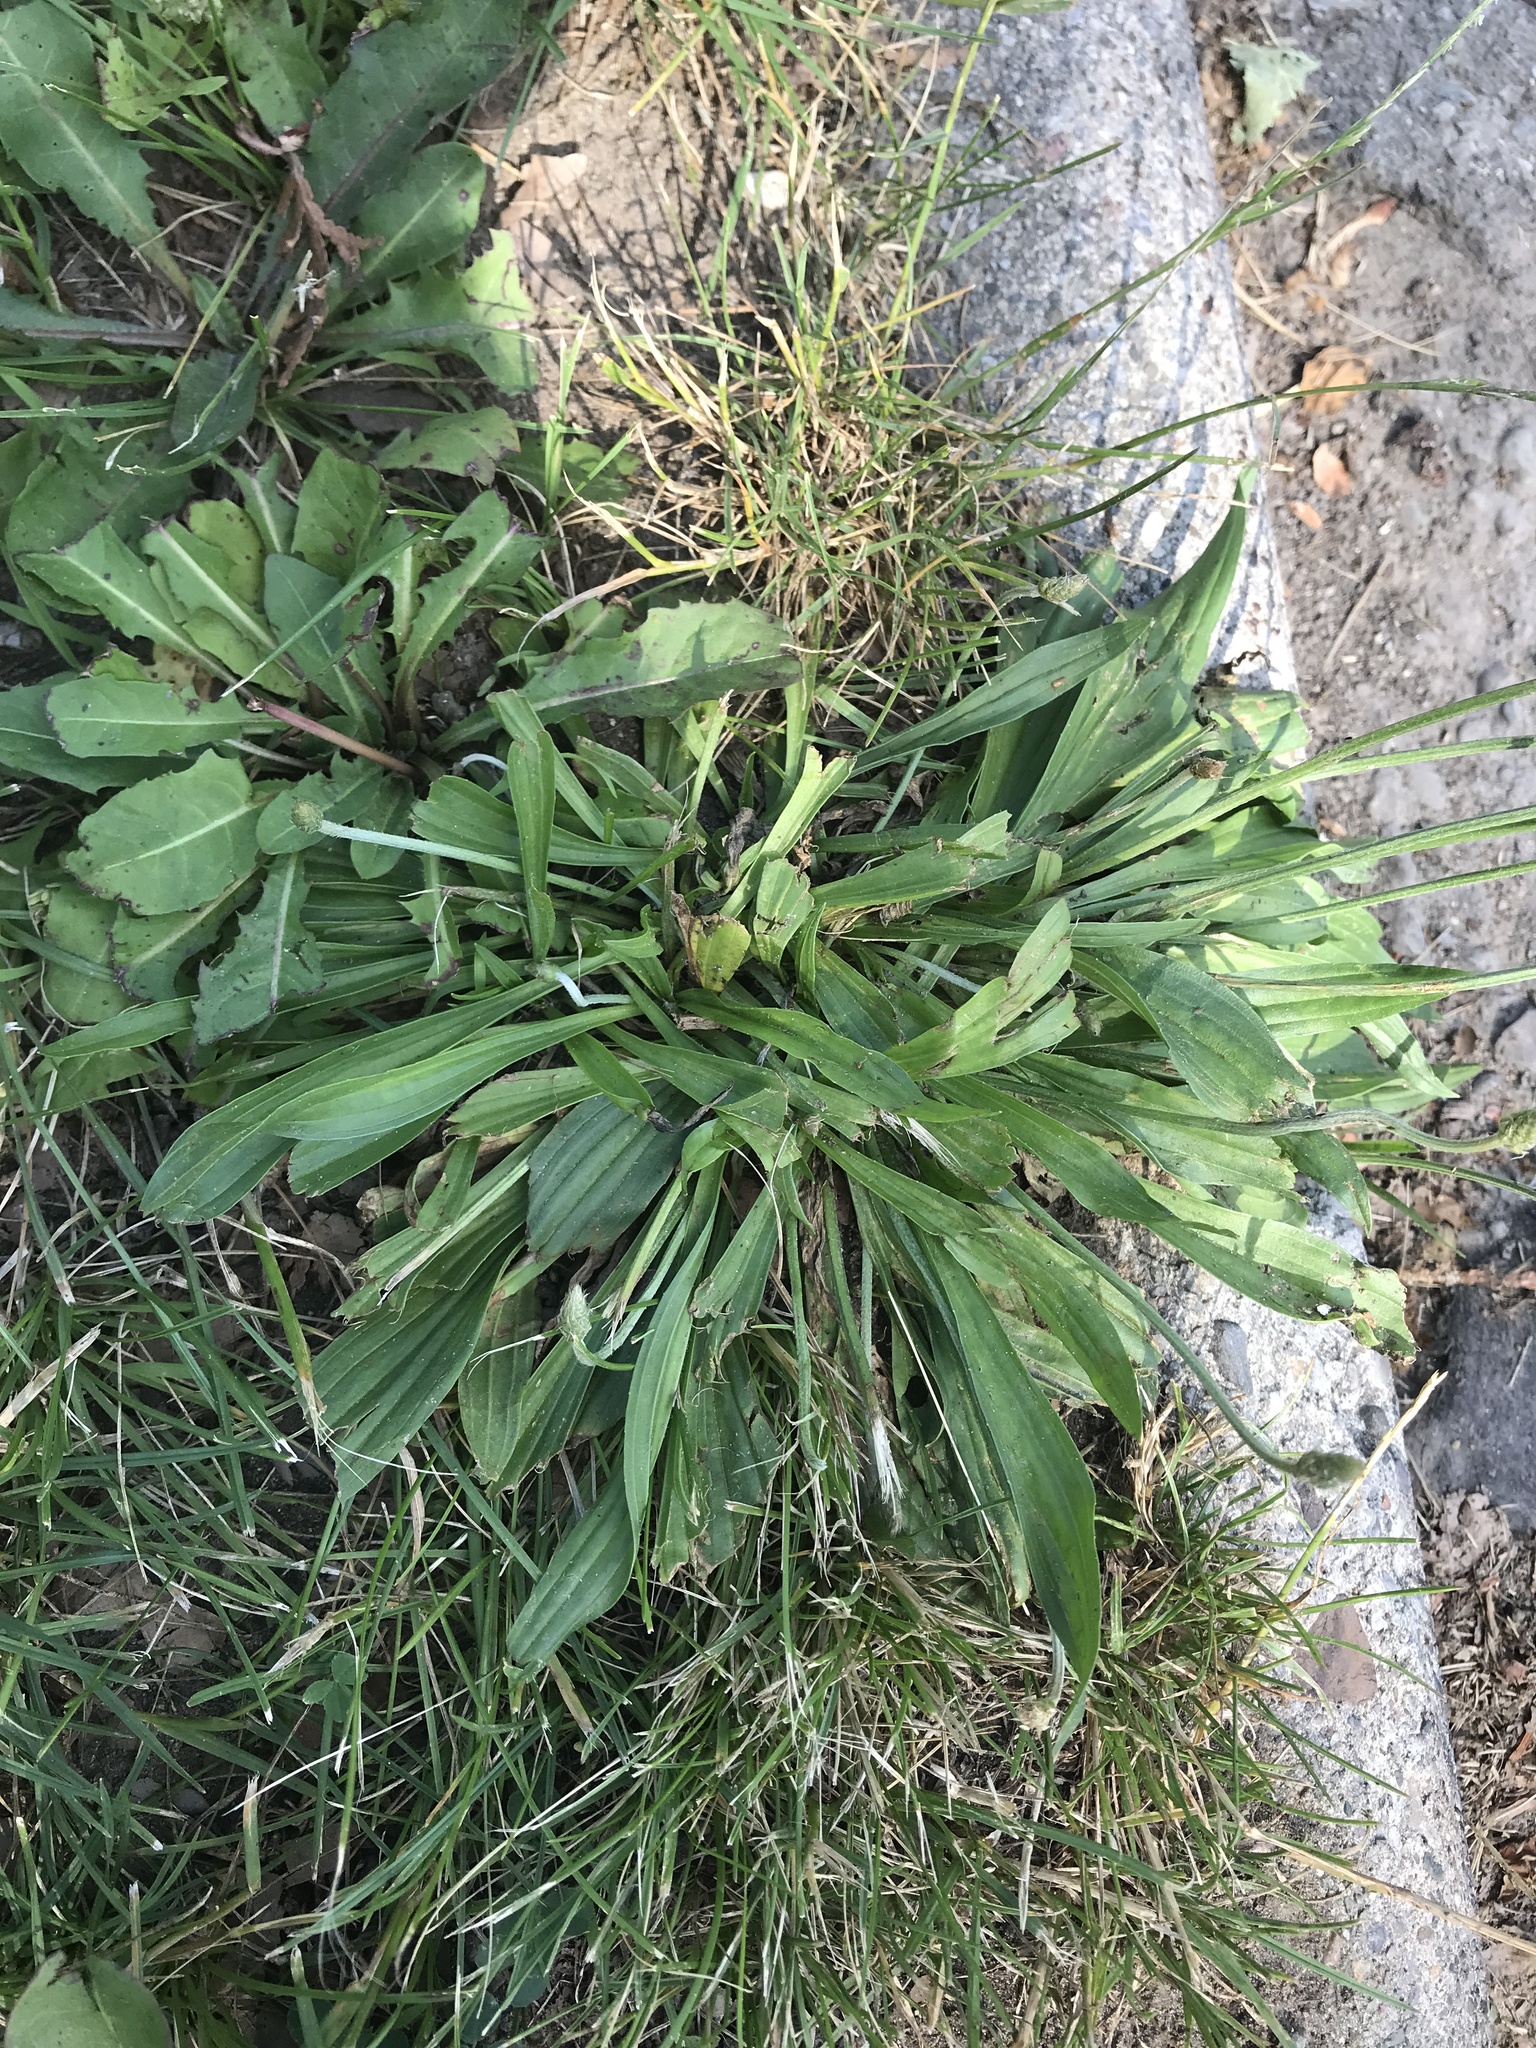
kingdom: Plantae
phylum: Tracheophyta
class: Magnoliopsida
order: Lamiales
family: Plantaginaceae
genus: Plantago
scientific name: Plantago lanceolata
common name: Ribwort plantain
